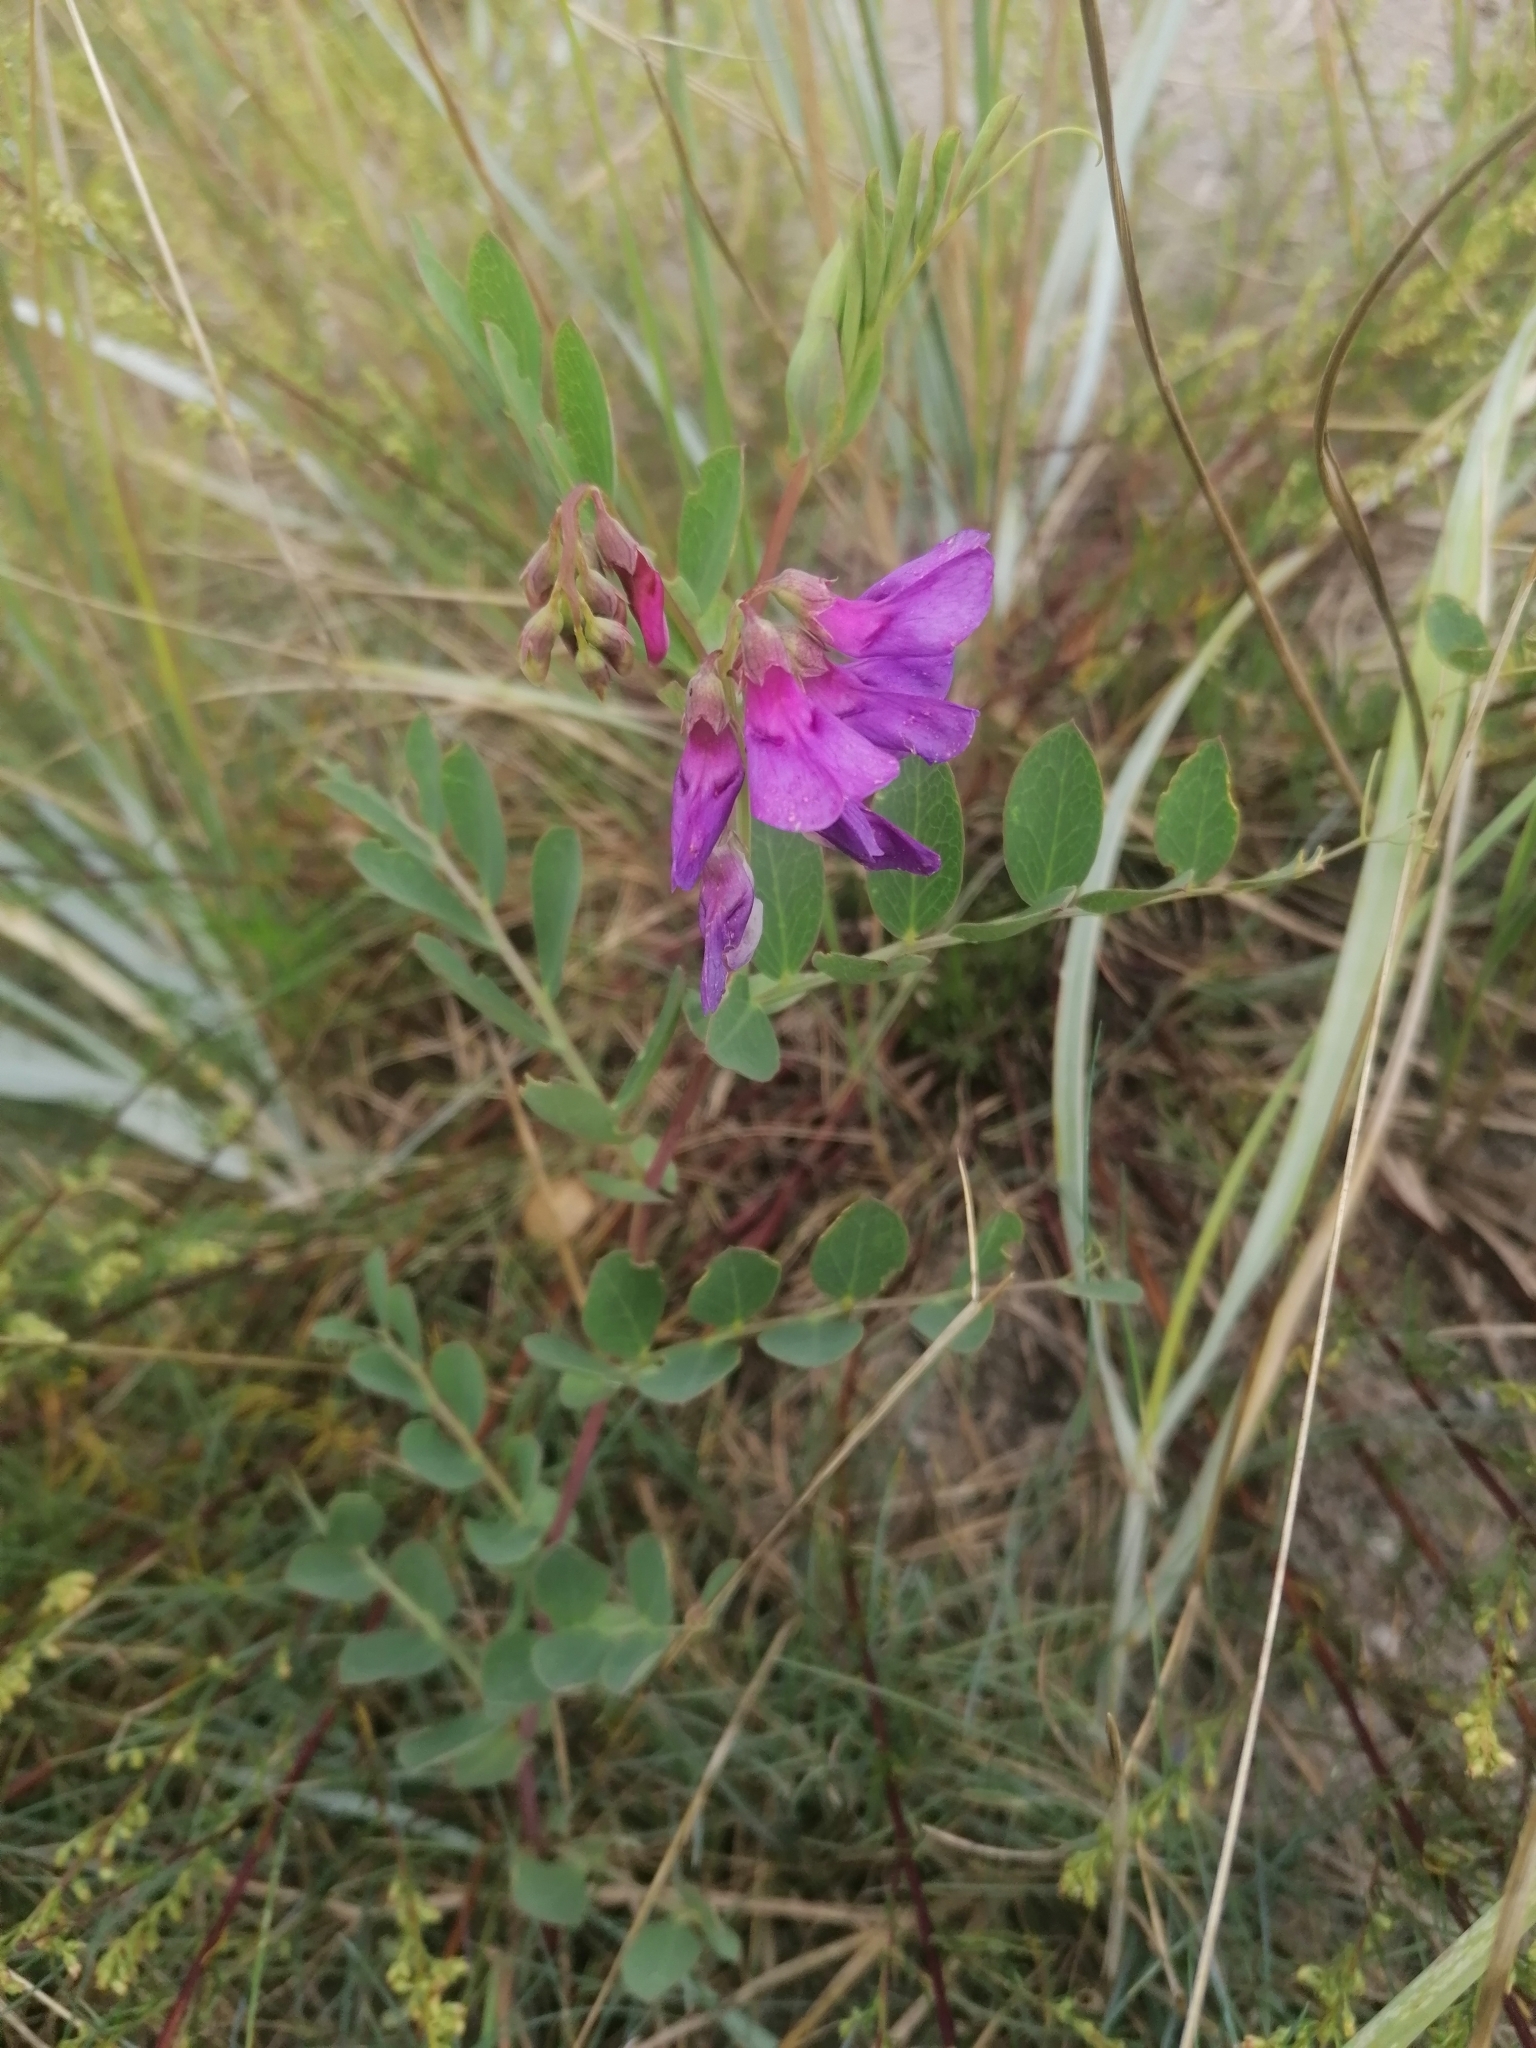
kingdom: Plantae
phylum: Tracheophyta
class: Magnoliopsida
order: Fabales
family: Fabaceae
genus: Lathyrus
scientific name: Lathyrus japonicus
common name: Sea pea
